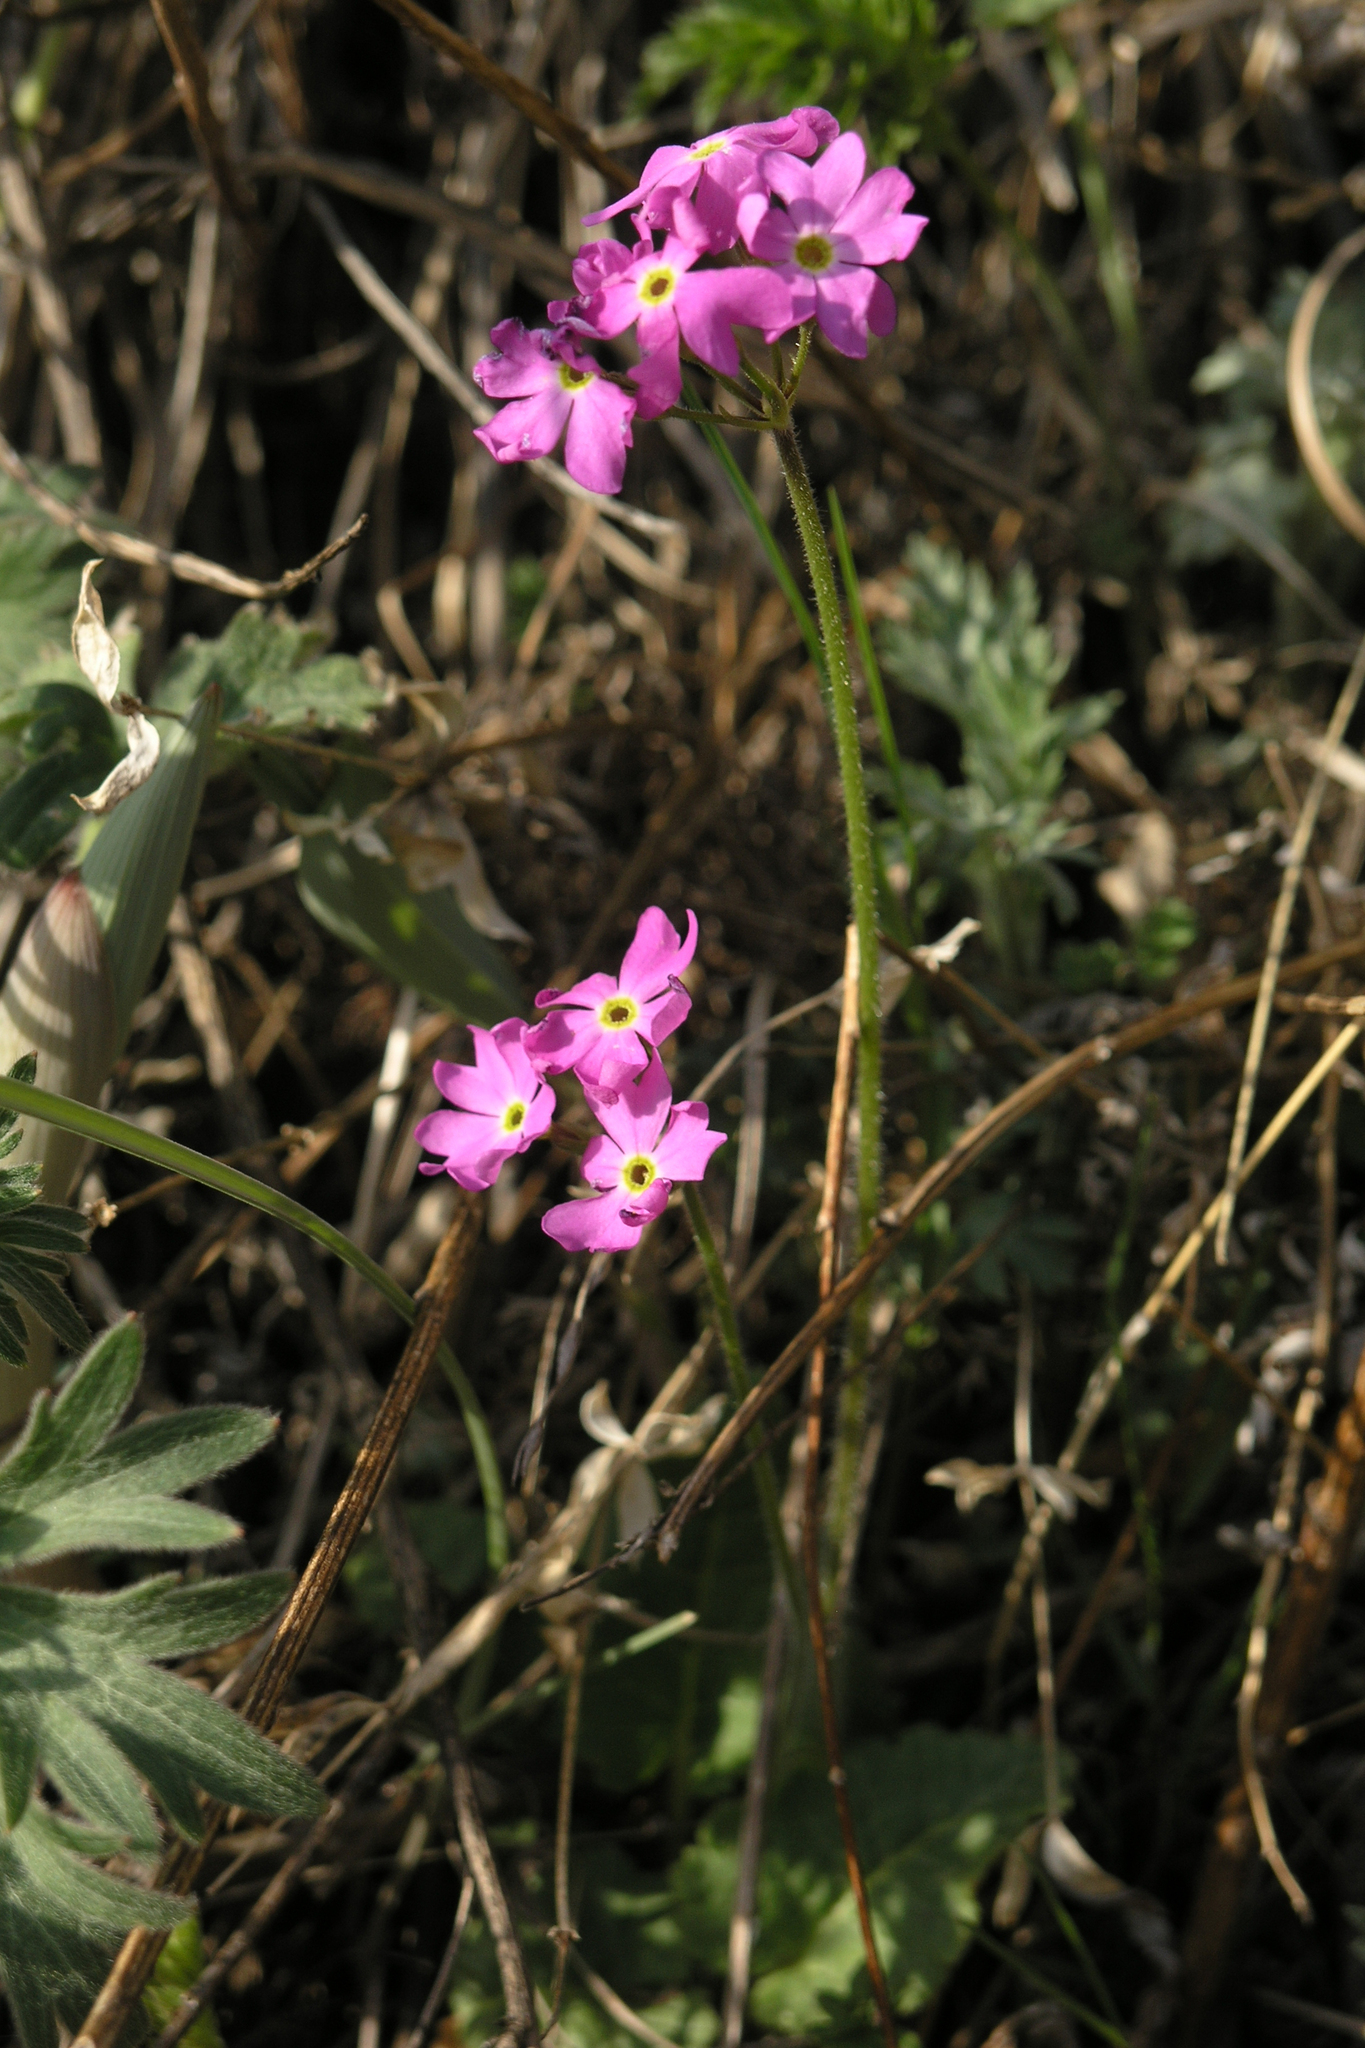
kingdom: Plantae
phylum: Tracheophyta
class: Magnoliopsida
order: Ericales
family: Primulaceae
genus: Primula
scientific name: Primula cortusoides
